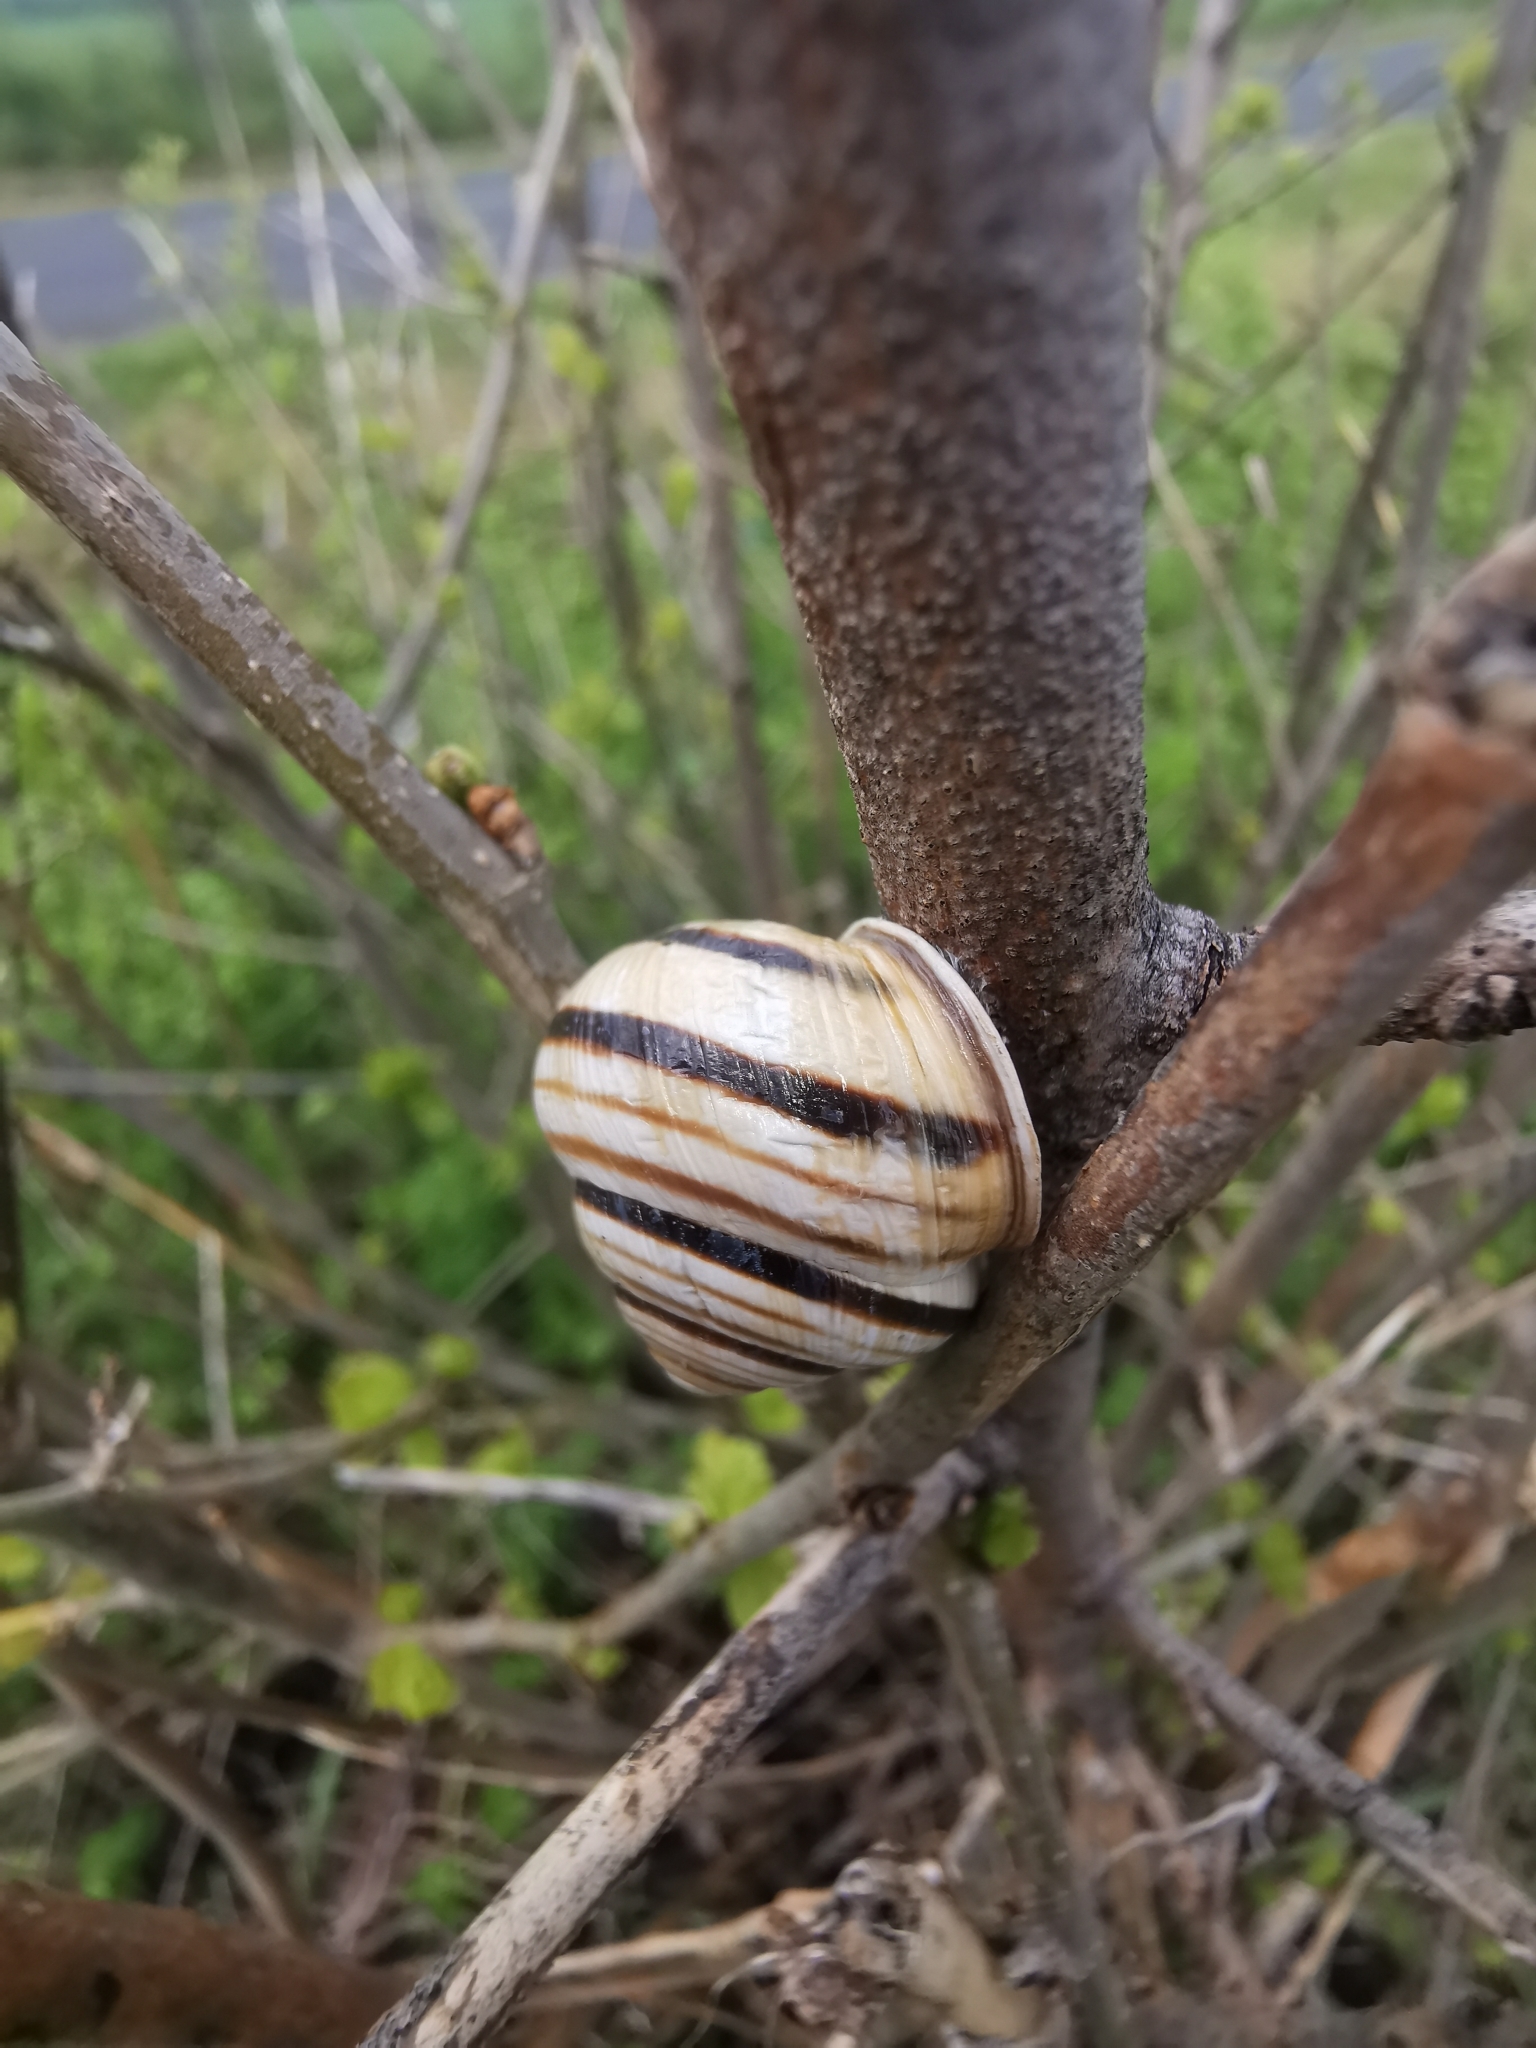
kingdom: Animalia
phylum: Mollusca
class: Gastropoda
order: Stylommatophora
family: Helicidae
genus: Caucasotachea
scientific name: Caucasotachea vindobonensis
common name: European helicid land snail
